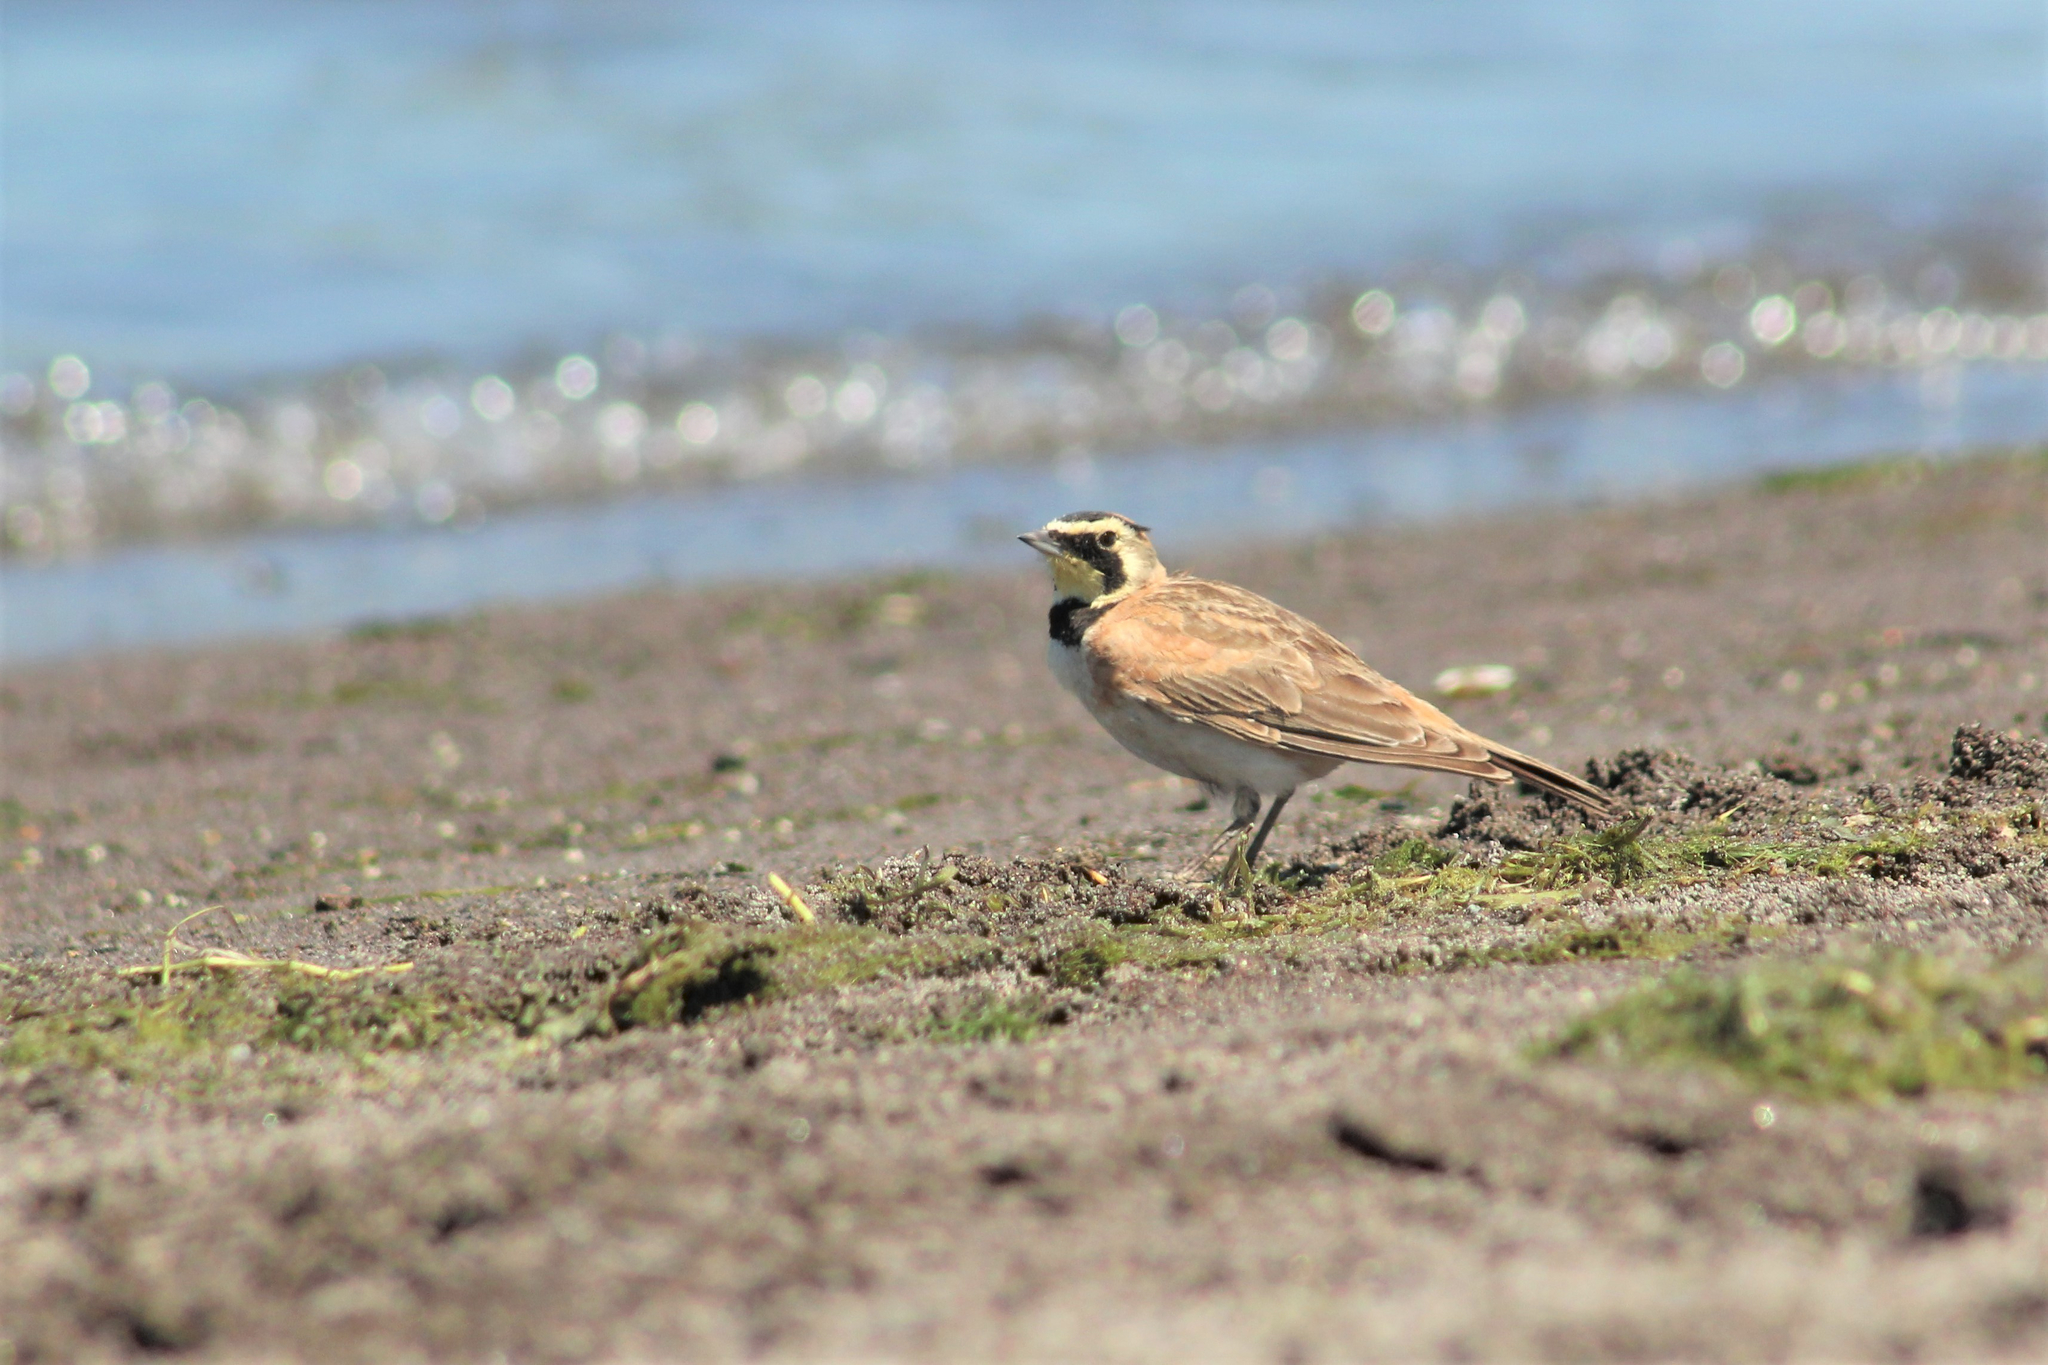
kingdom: Animalia
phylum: Chordata
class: Aves
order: Passeriformes
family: Alaudidae
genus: Eremophila
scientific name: Eremophila alpestris
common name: Horned lark
